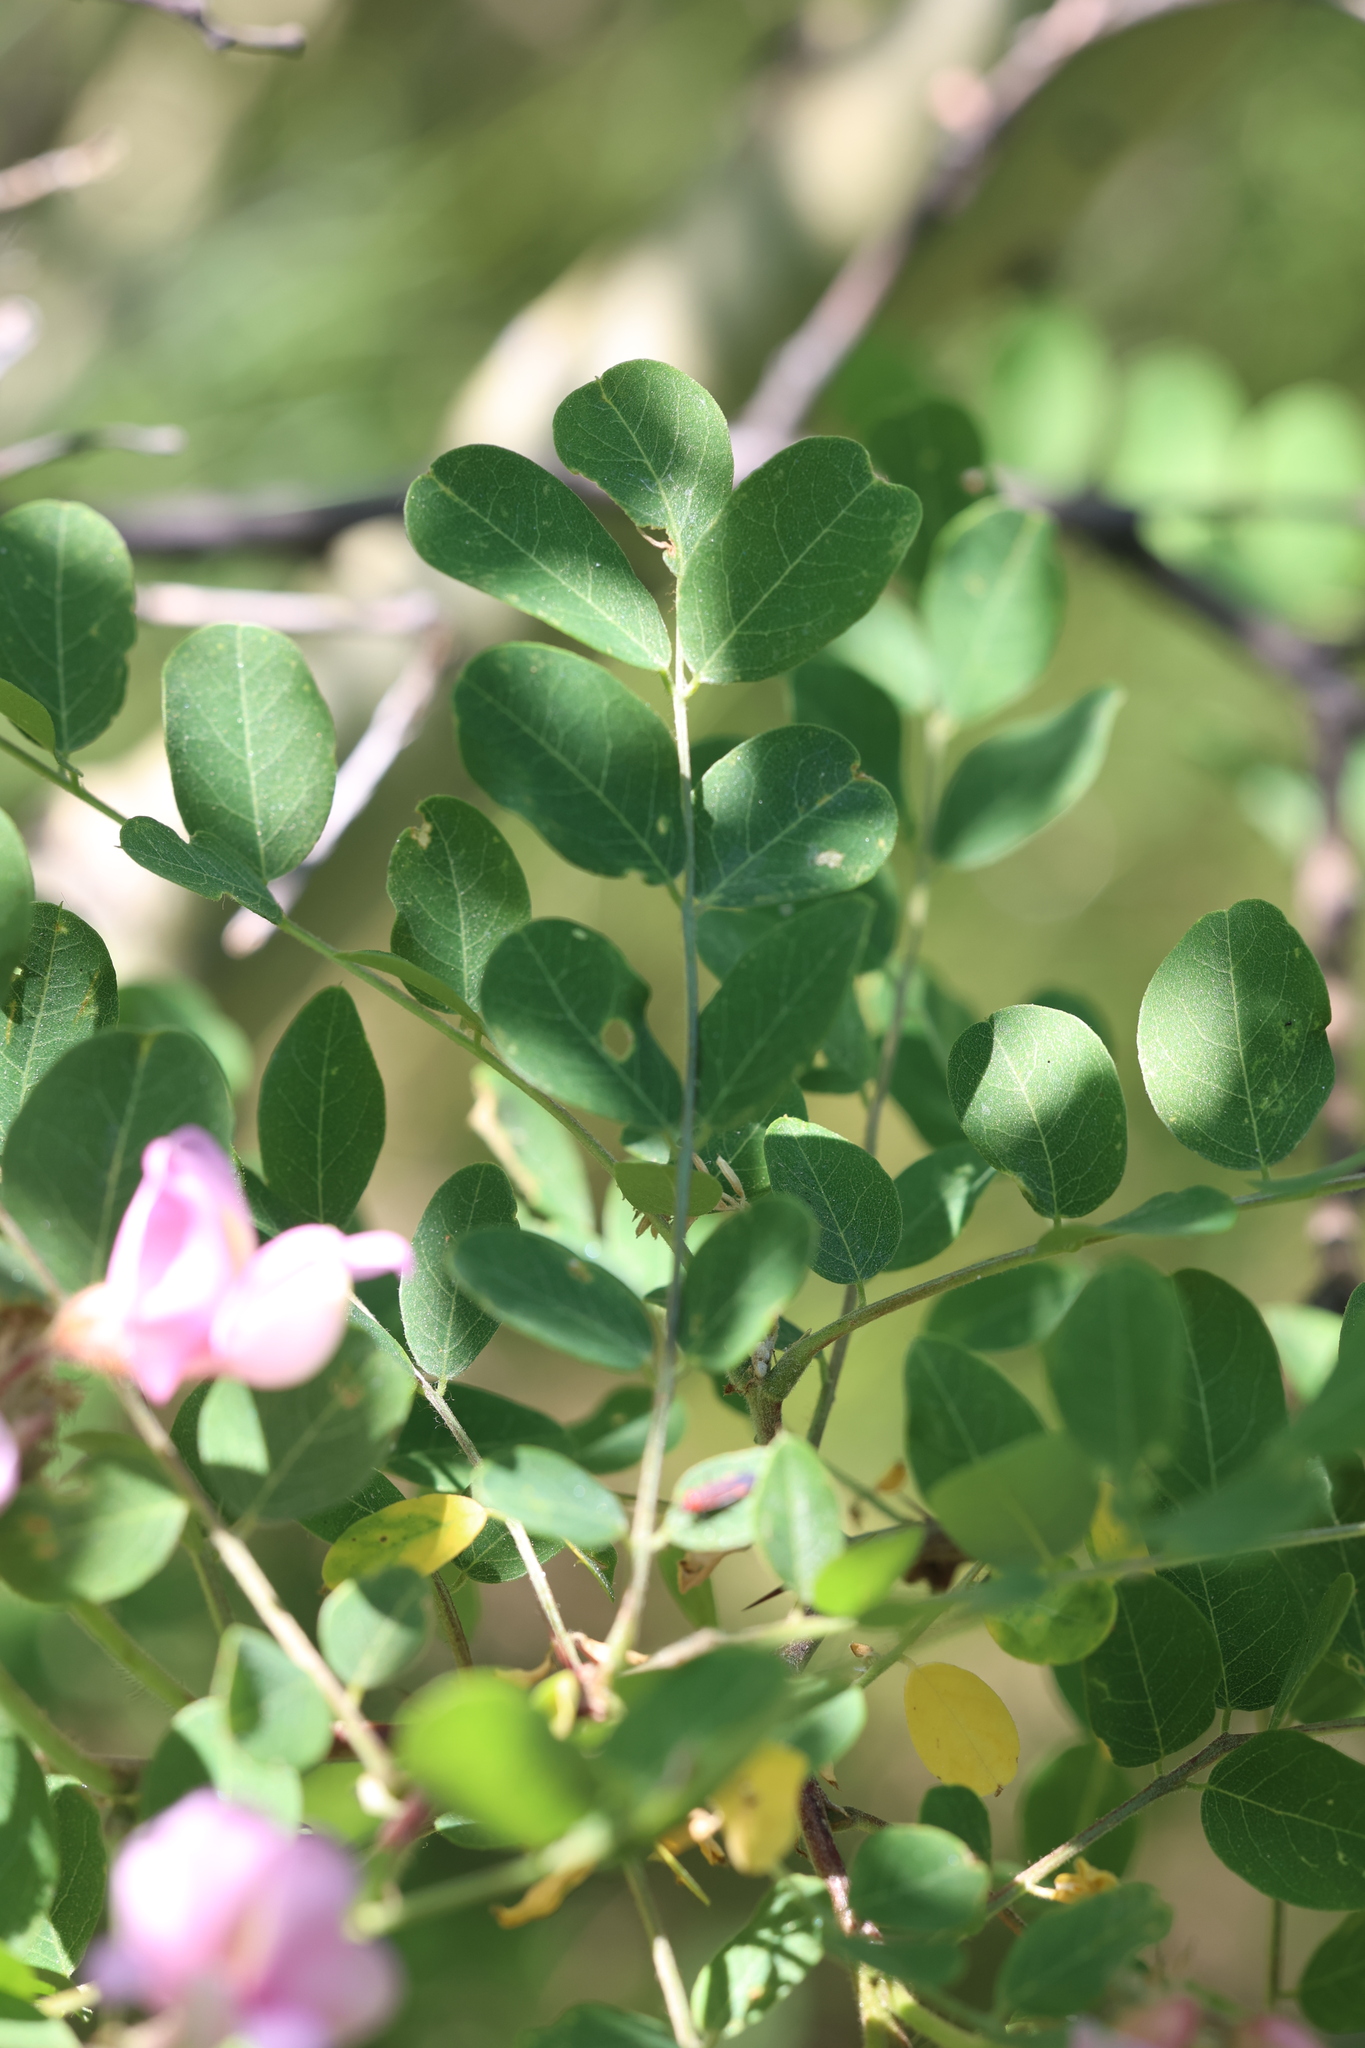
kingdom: Plantae
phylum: Tracheophyta
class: Magnoliopsida
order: Fabales
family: Fabaceae
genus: Robinia
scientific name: Robinia neomexicana
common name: New mexico locust
